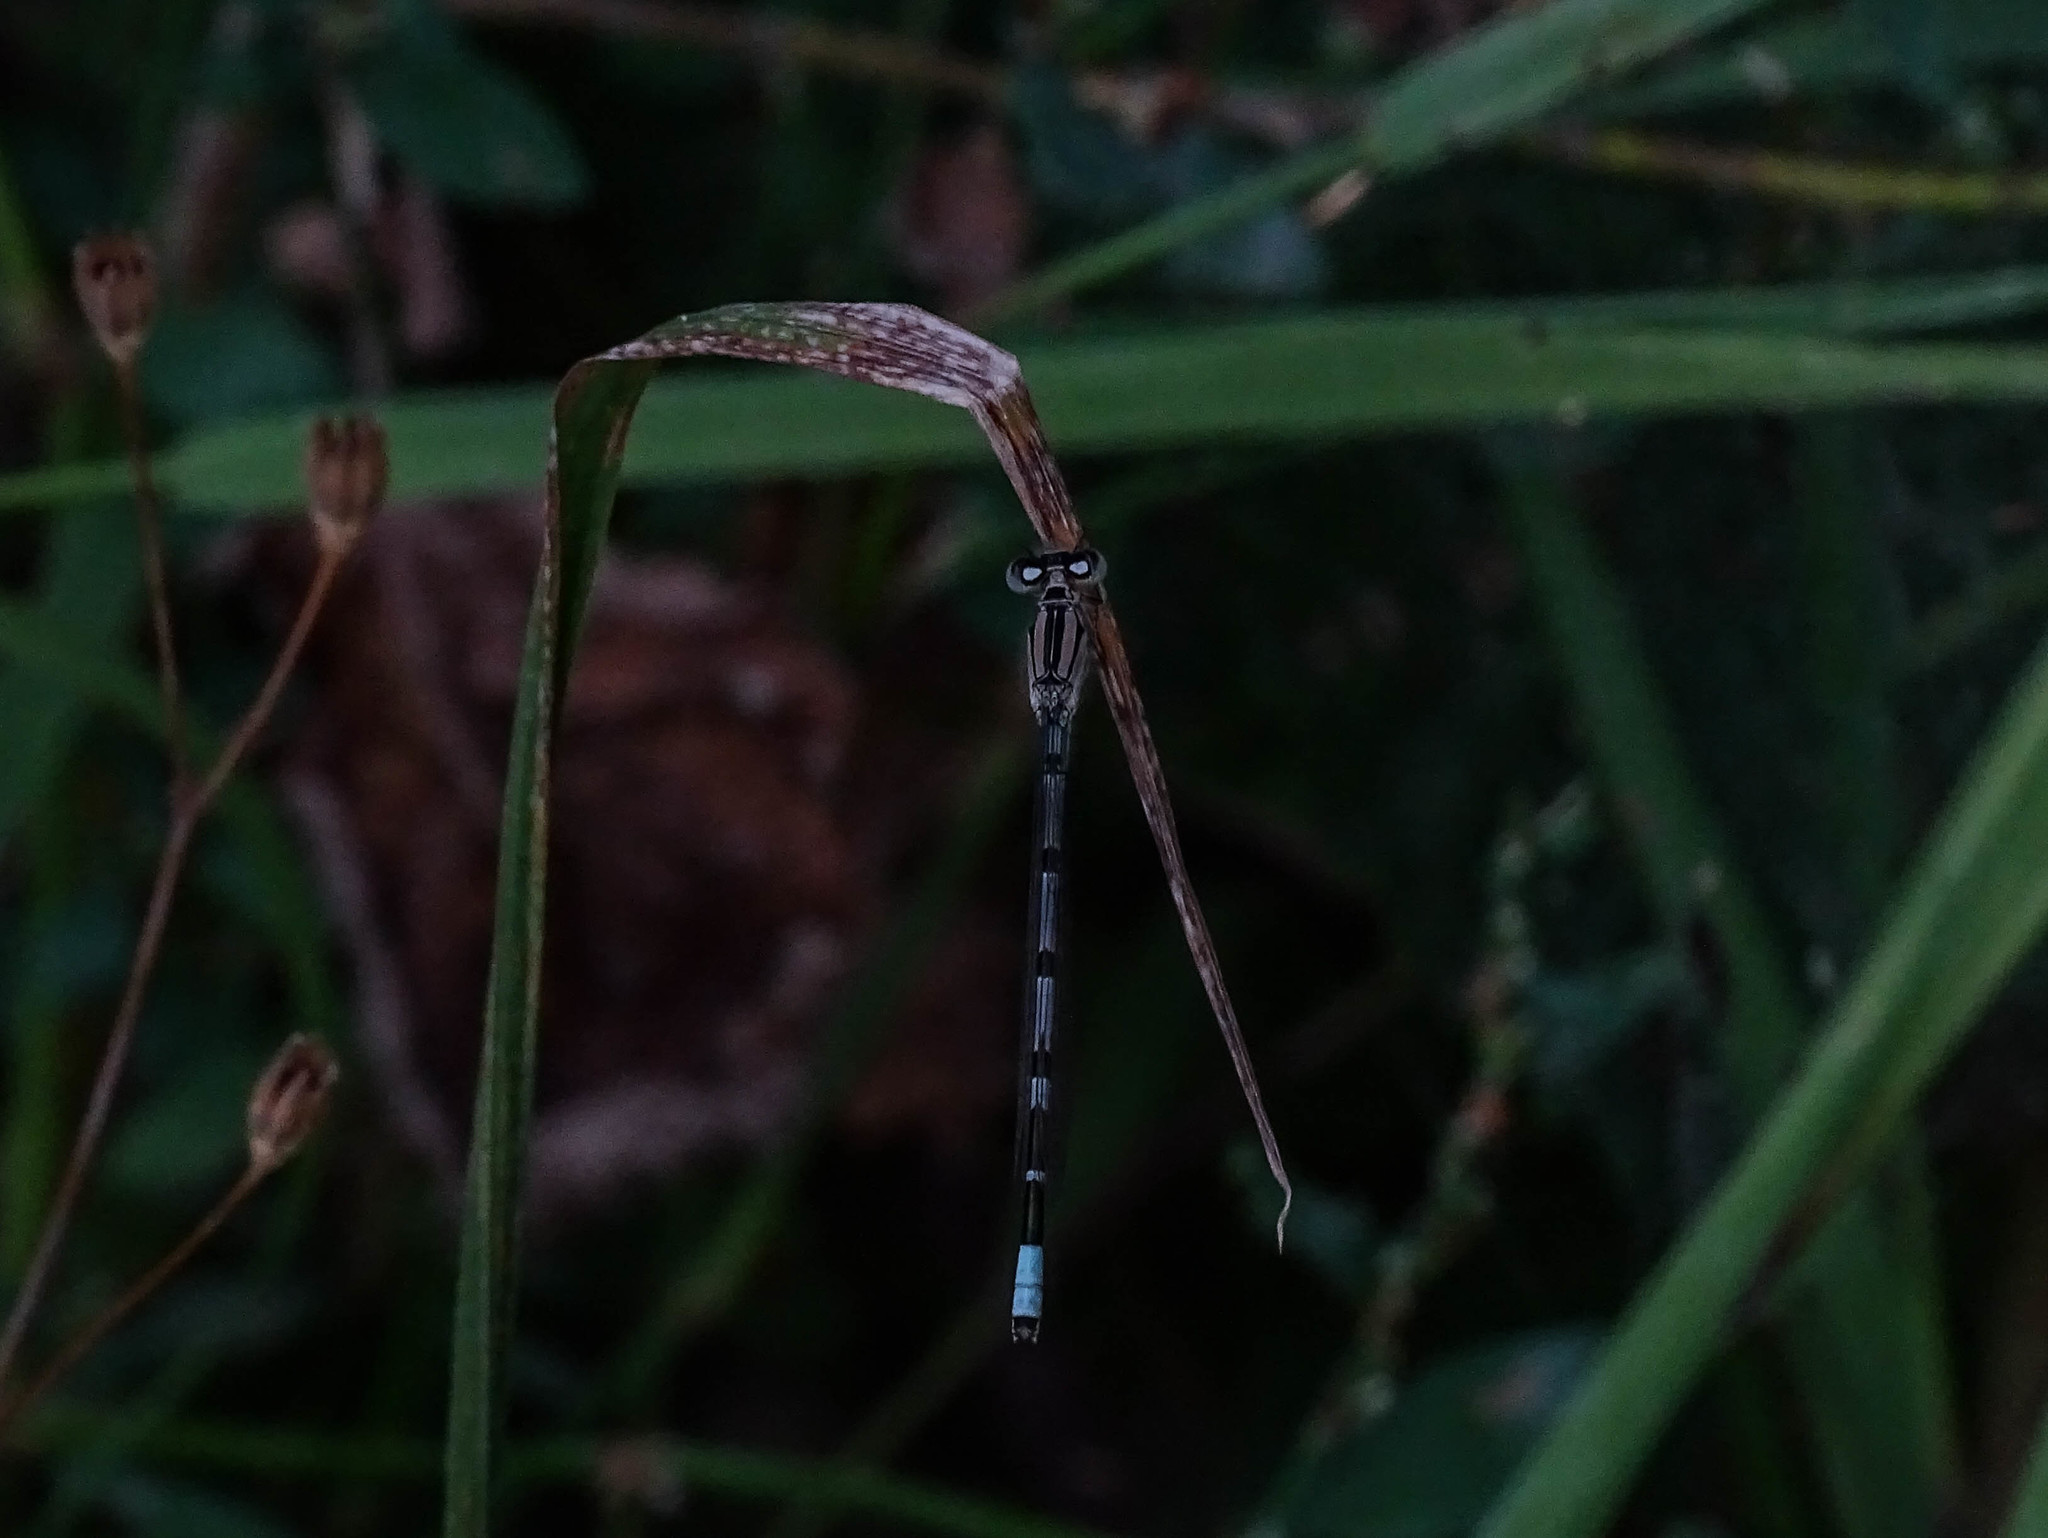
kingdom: Animalia
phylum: Arthropoda
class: Insecta
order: Odonata
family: Coenagrionidae
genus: Enallagma
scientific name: Enallagma cyathigerum
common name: Common blue damselfly
